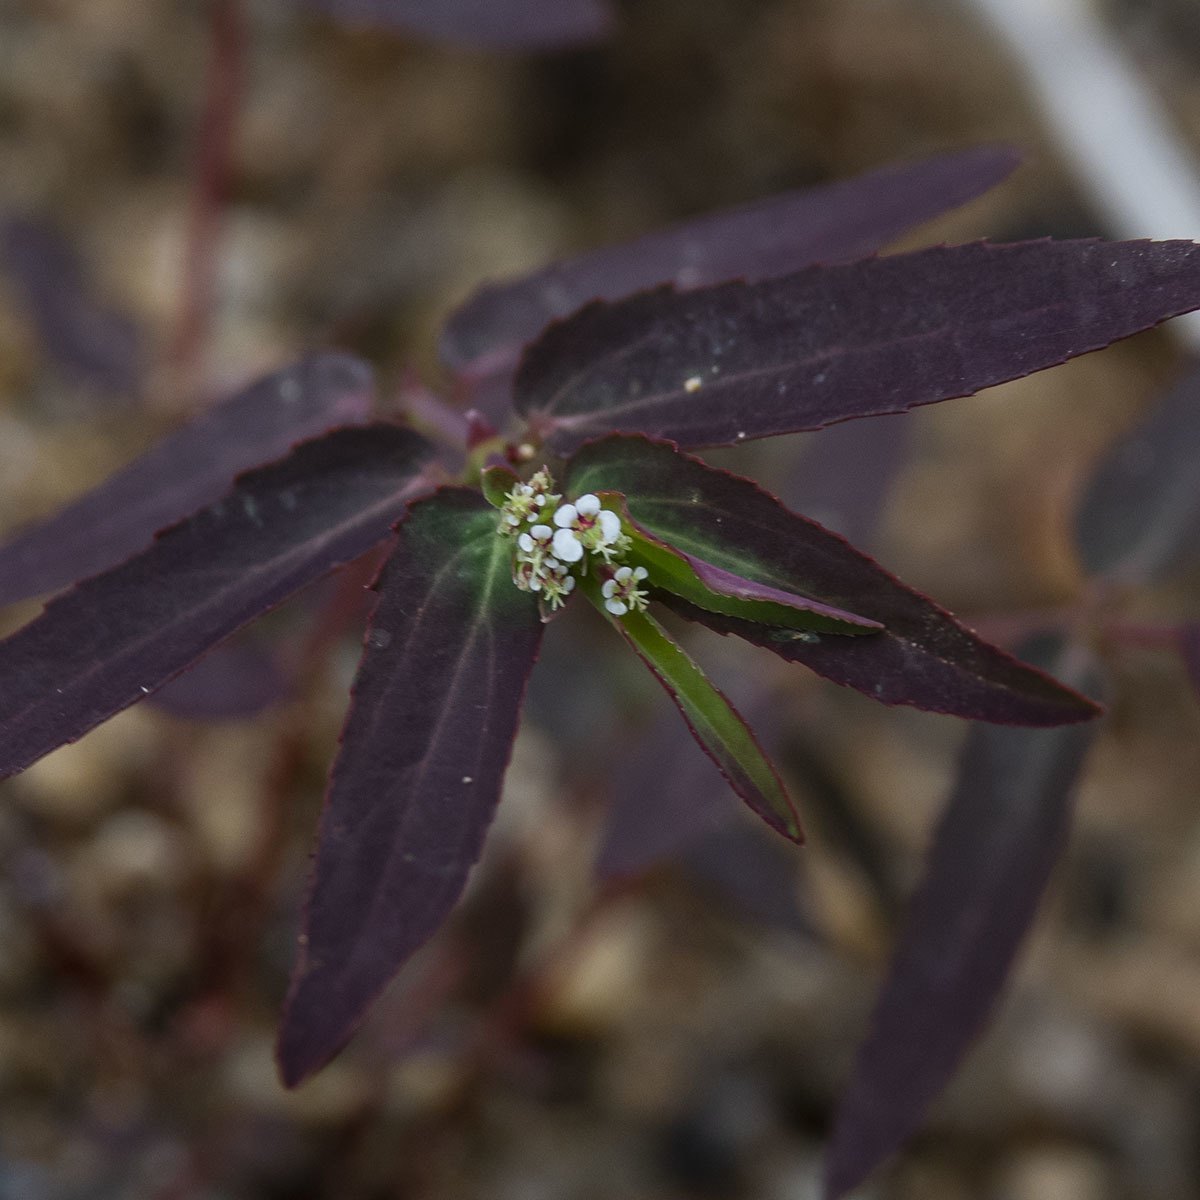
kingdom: Plantae
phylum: Tracheophyta
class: Magnoliopsida
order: Malpighiales
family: Euphorbiaceae
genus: Euphorbia
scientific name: Euphorbia hypericifolia
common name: Graceful sandmat
